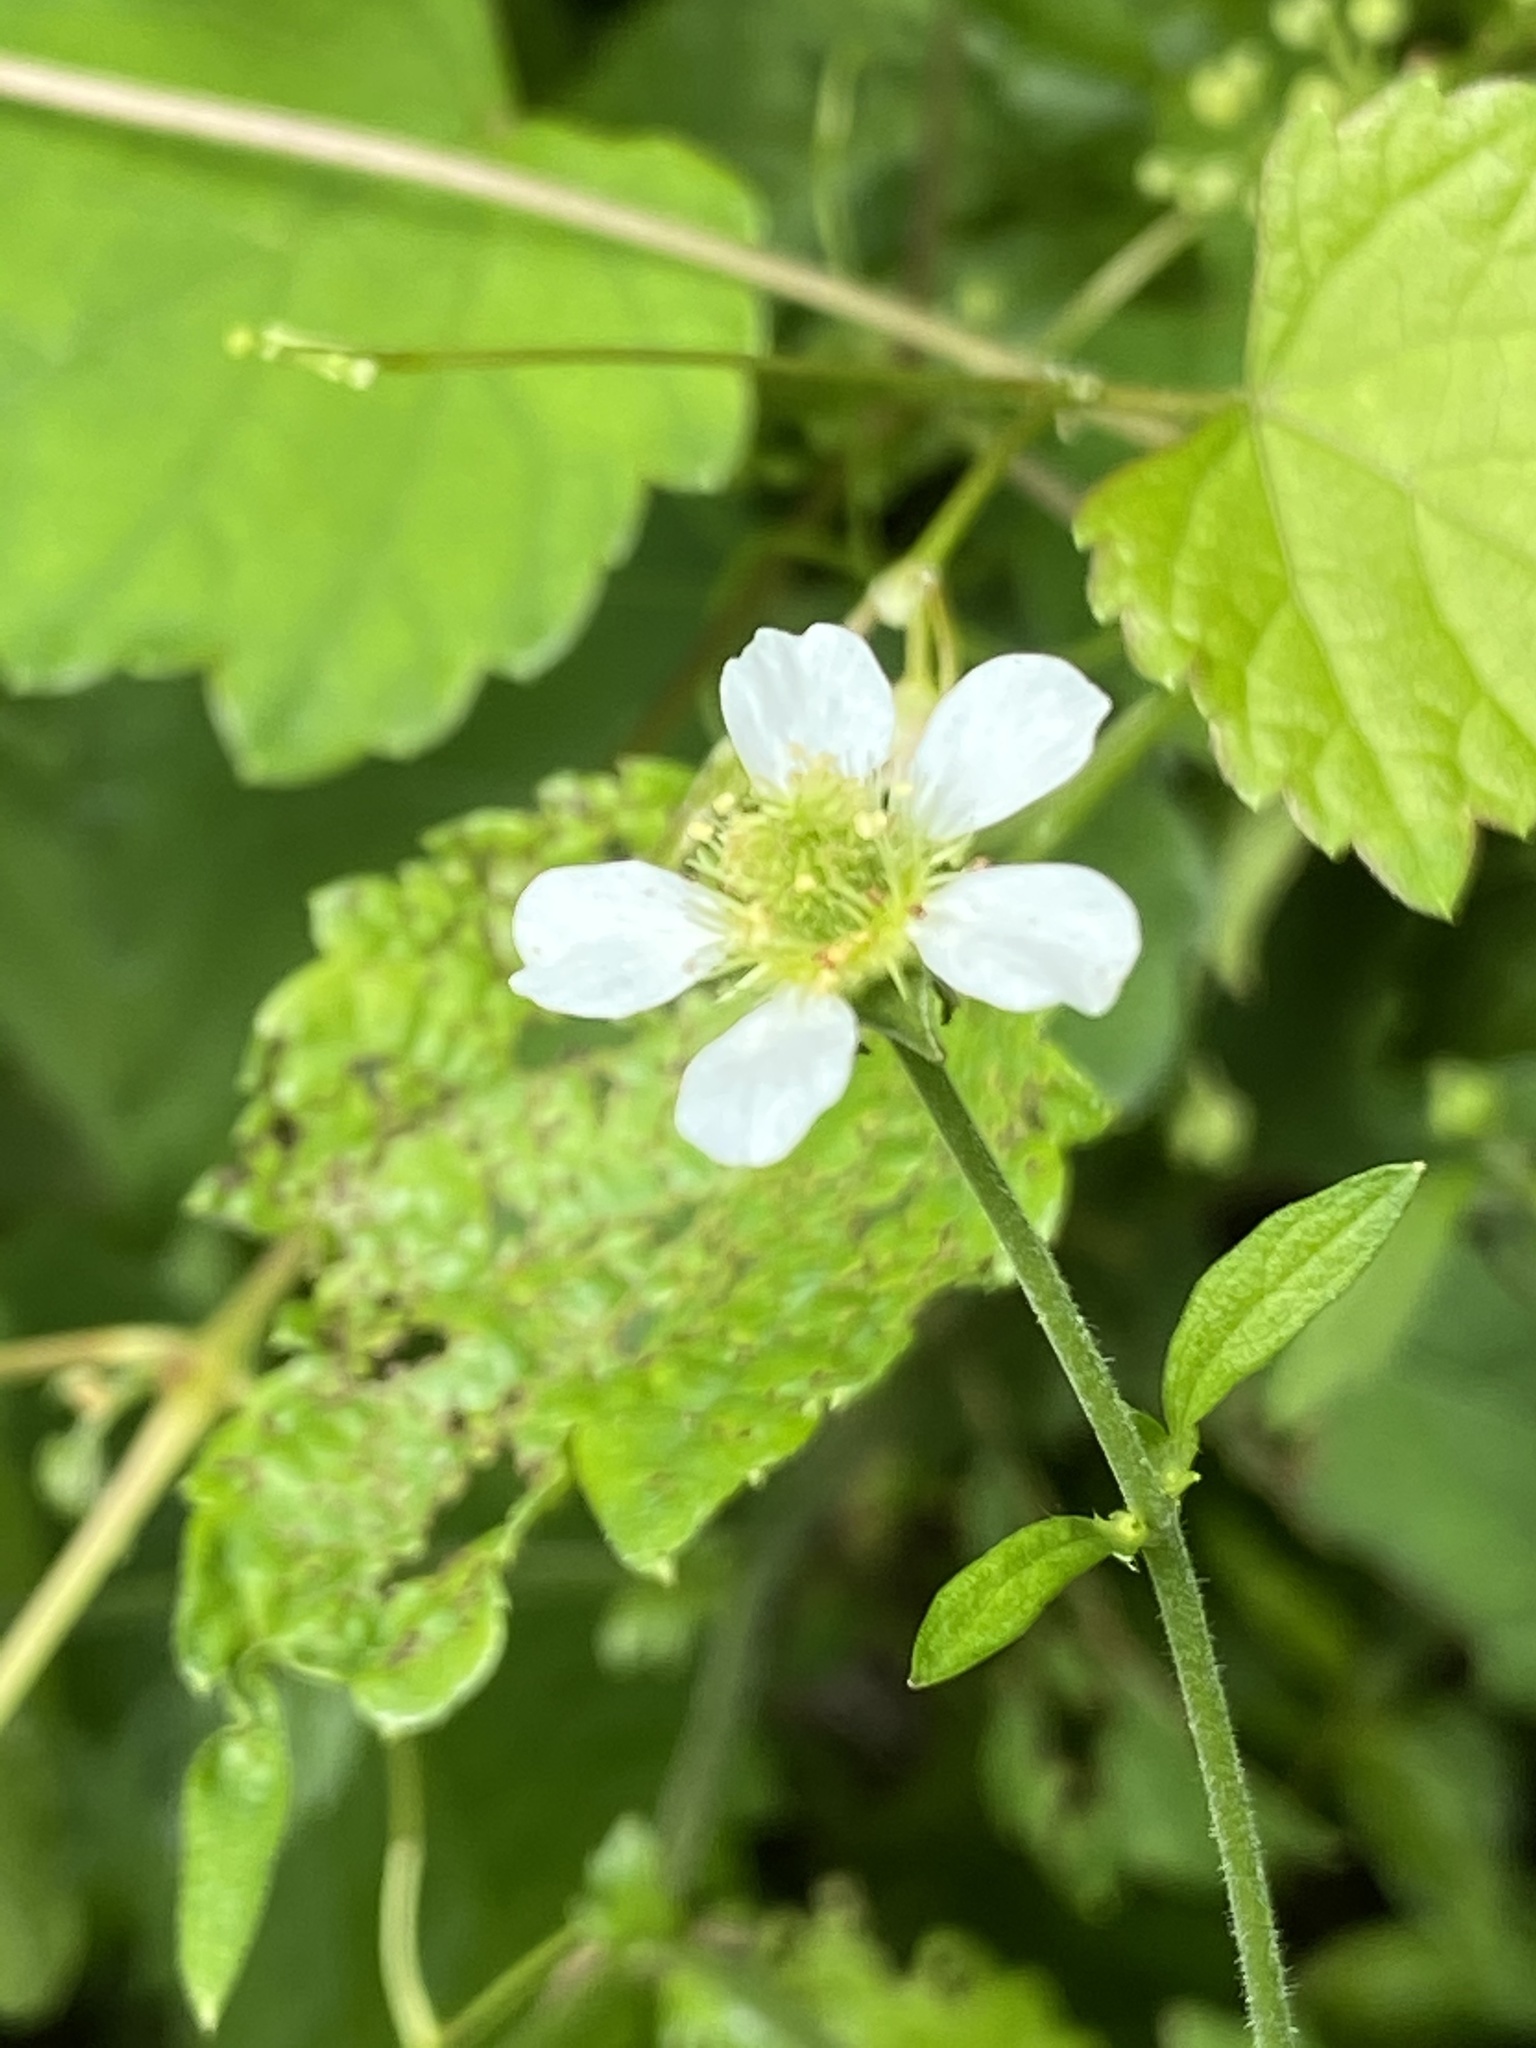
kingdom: Plantae
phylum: Tracheophyta
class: Magnoliopsida
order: Rosales
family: Rosaceae
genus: Geum
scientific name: Geum canadense
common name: White avens
